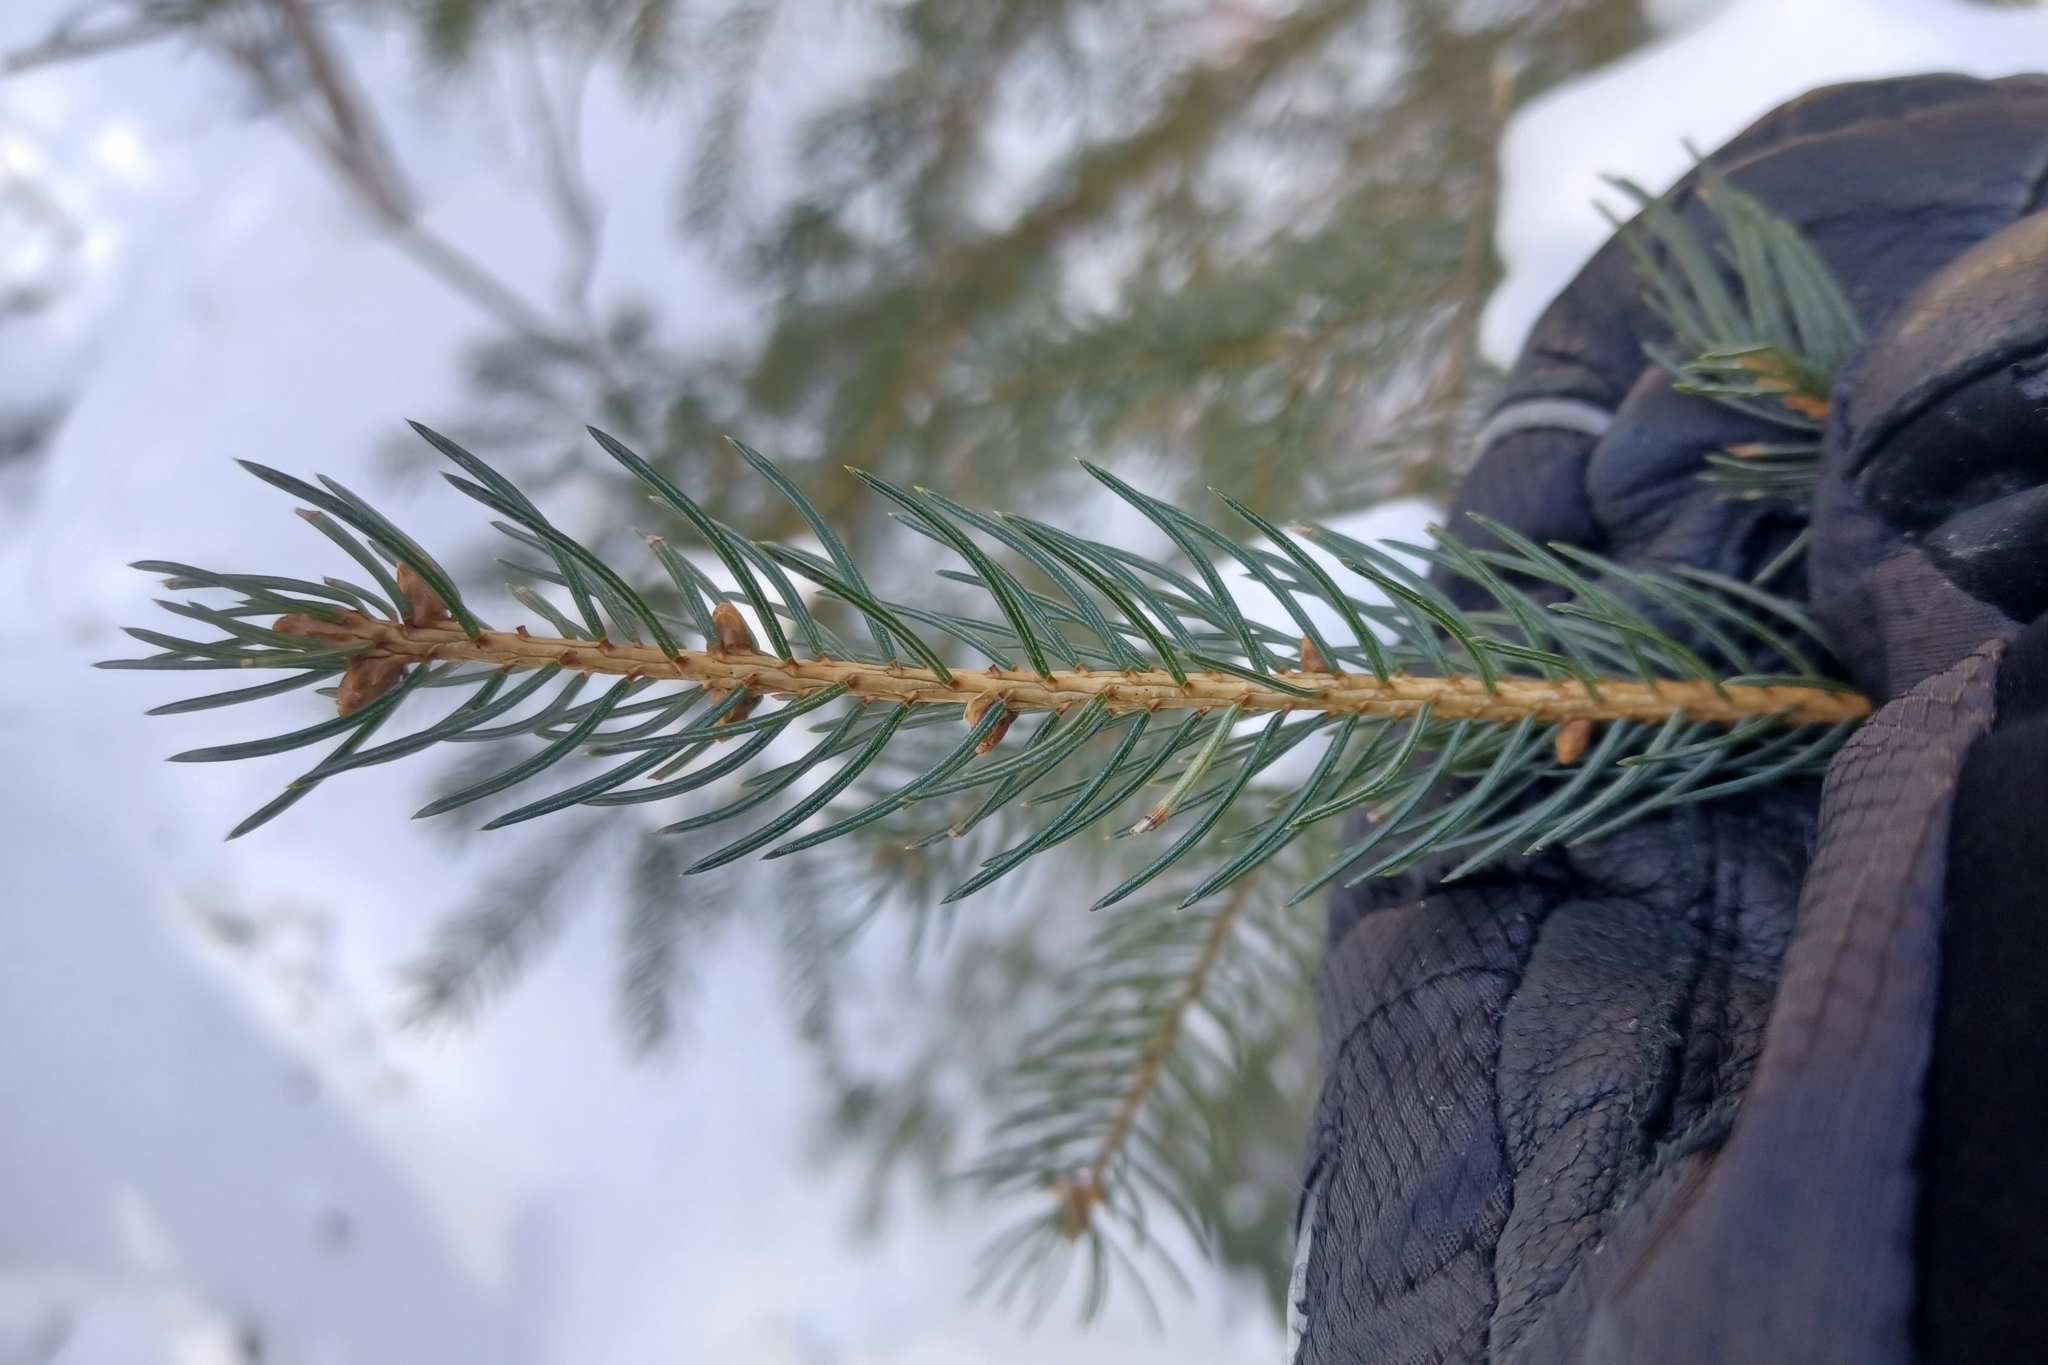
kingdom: Plantae
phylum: Tracheophyta
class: Pinopsida
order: Pinales
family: Pinaceae
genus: Picea
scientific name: Picea glauca
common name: White spruce
